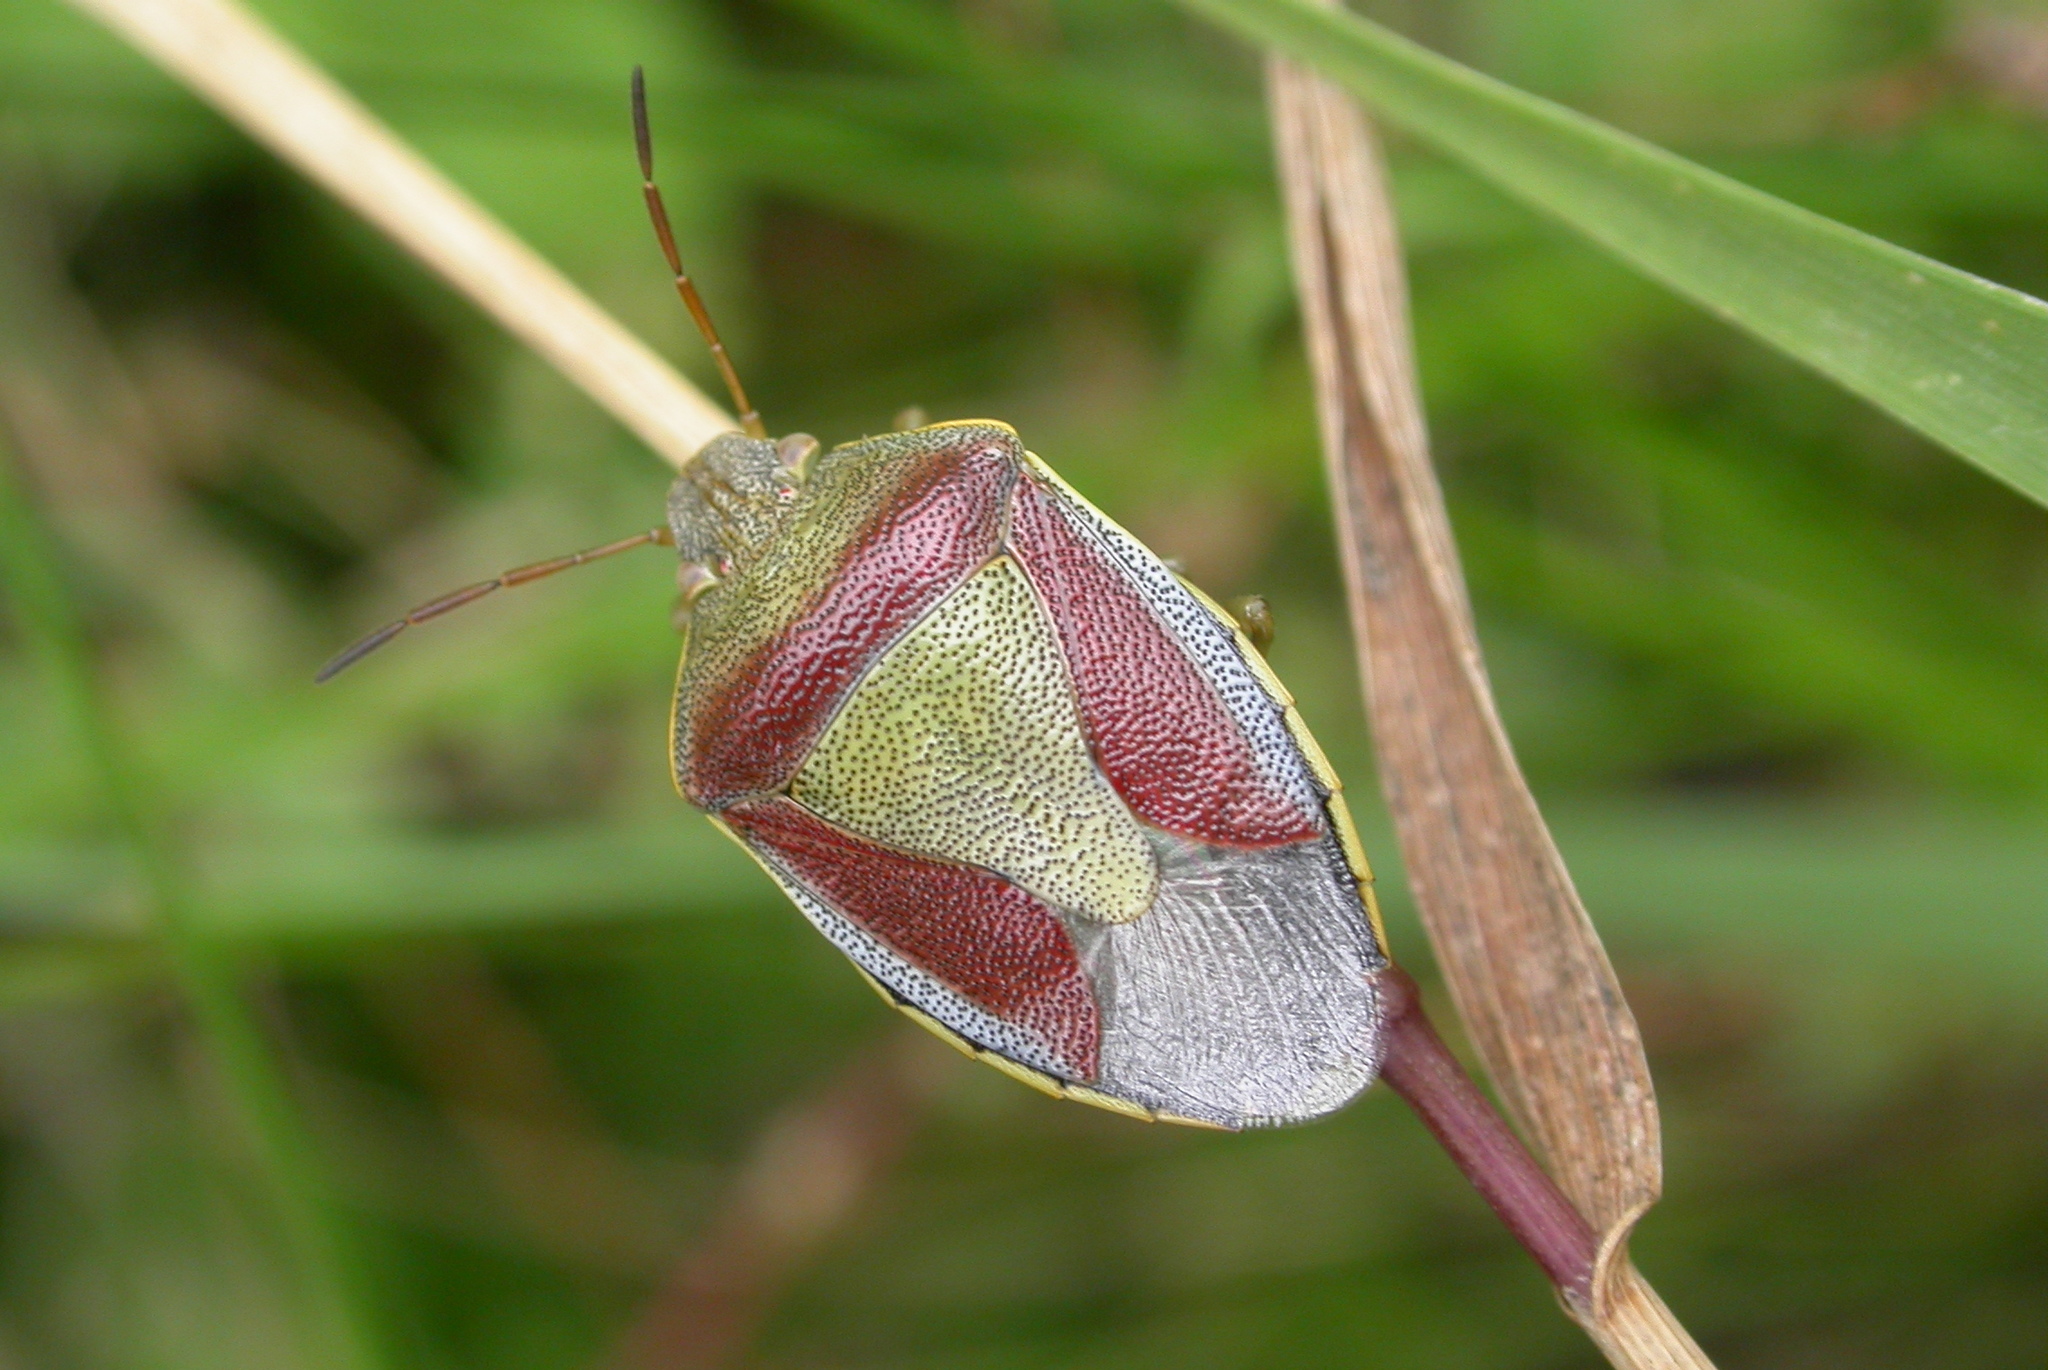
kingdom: Animalia
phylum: Arthropoda
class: Insecta
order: Hemiptera
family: Pentatomidae
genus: Piezodorus
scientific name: Piezodorus lituratus
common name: Stink bug
